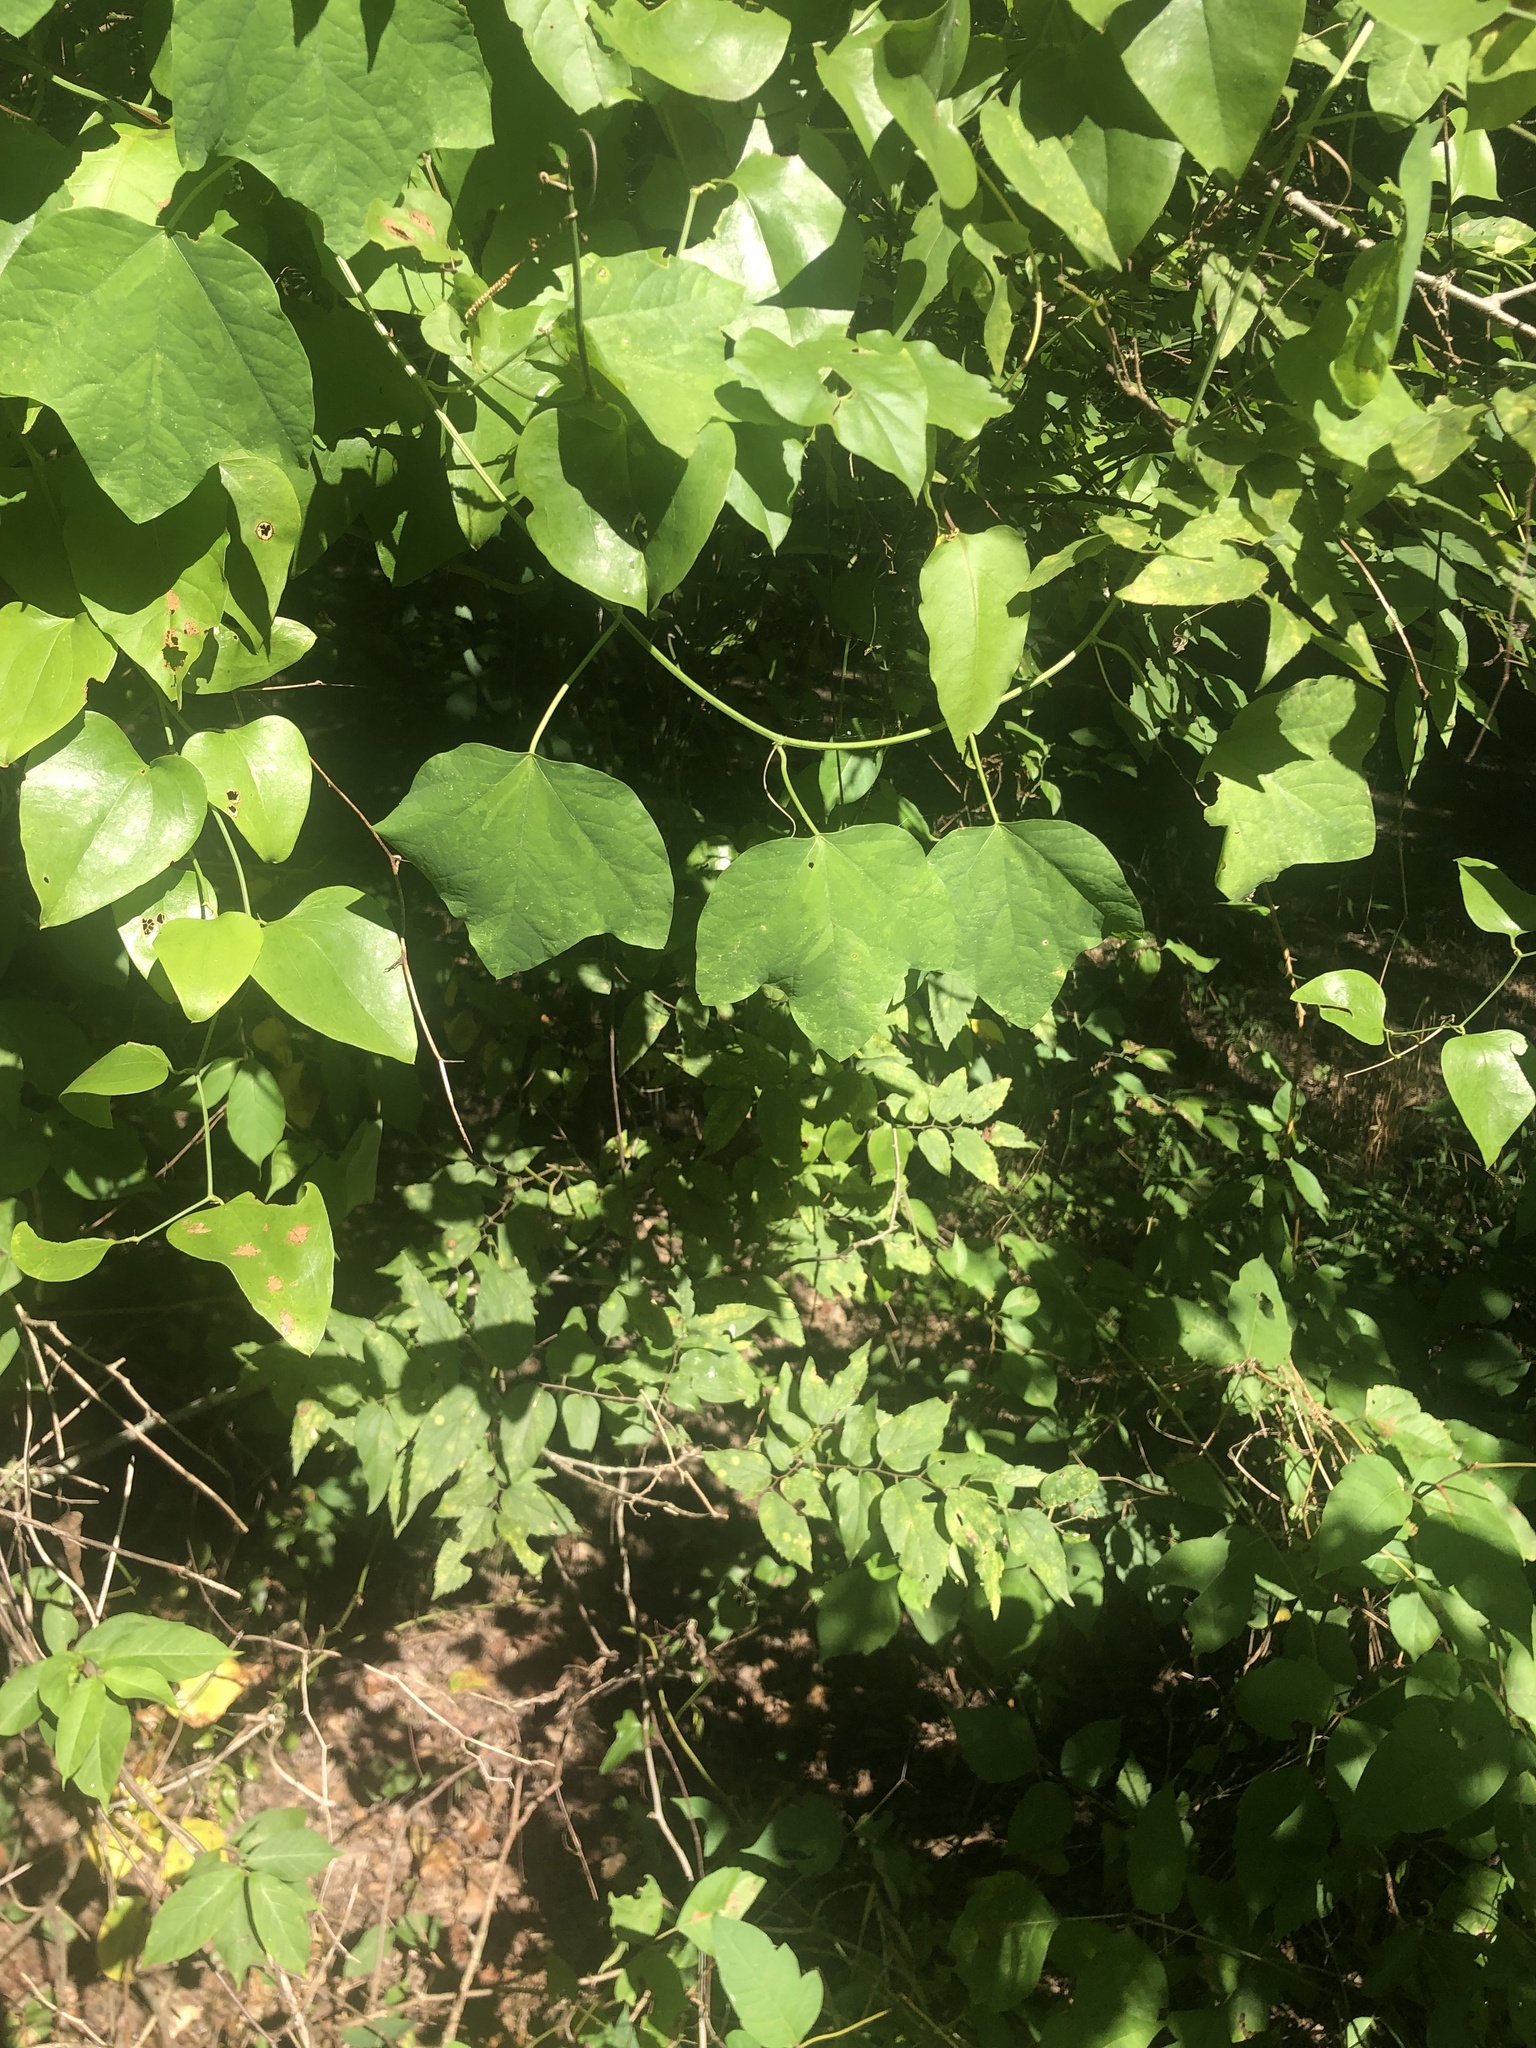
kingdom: Plantae
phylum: Tracheophyta
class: Magnoliopsida
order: Malpighiales
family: Passifloraceae
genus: Passiflora
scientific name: Passiflora lutea
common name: Yellow passionflower
